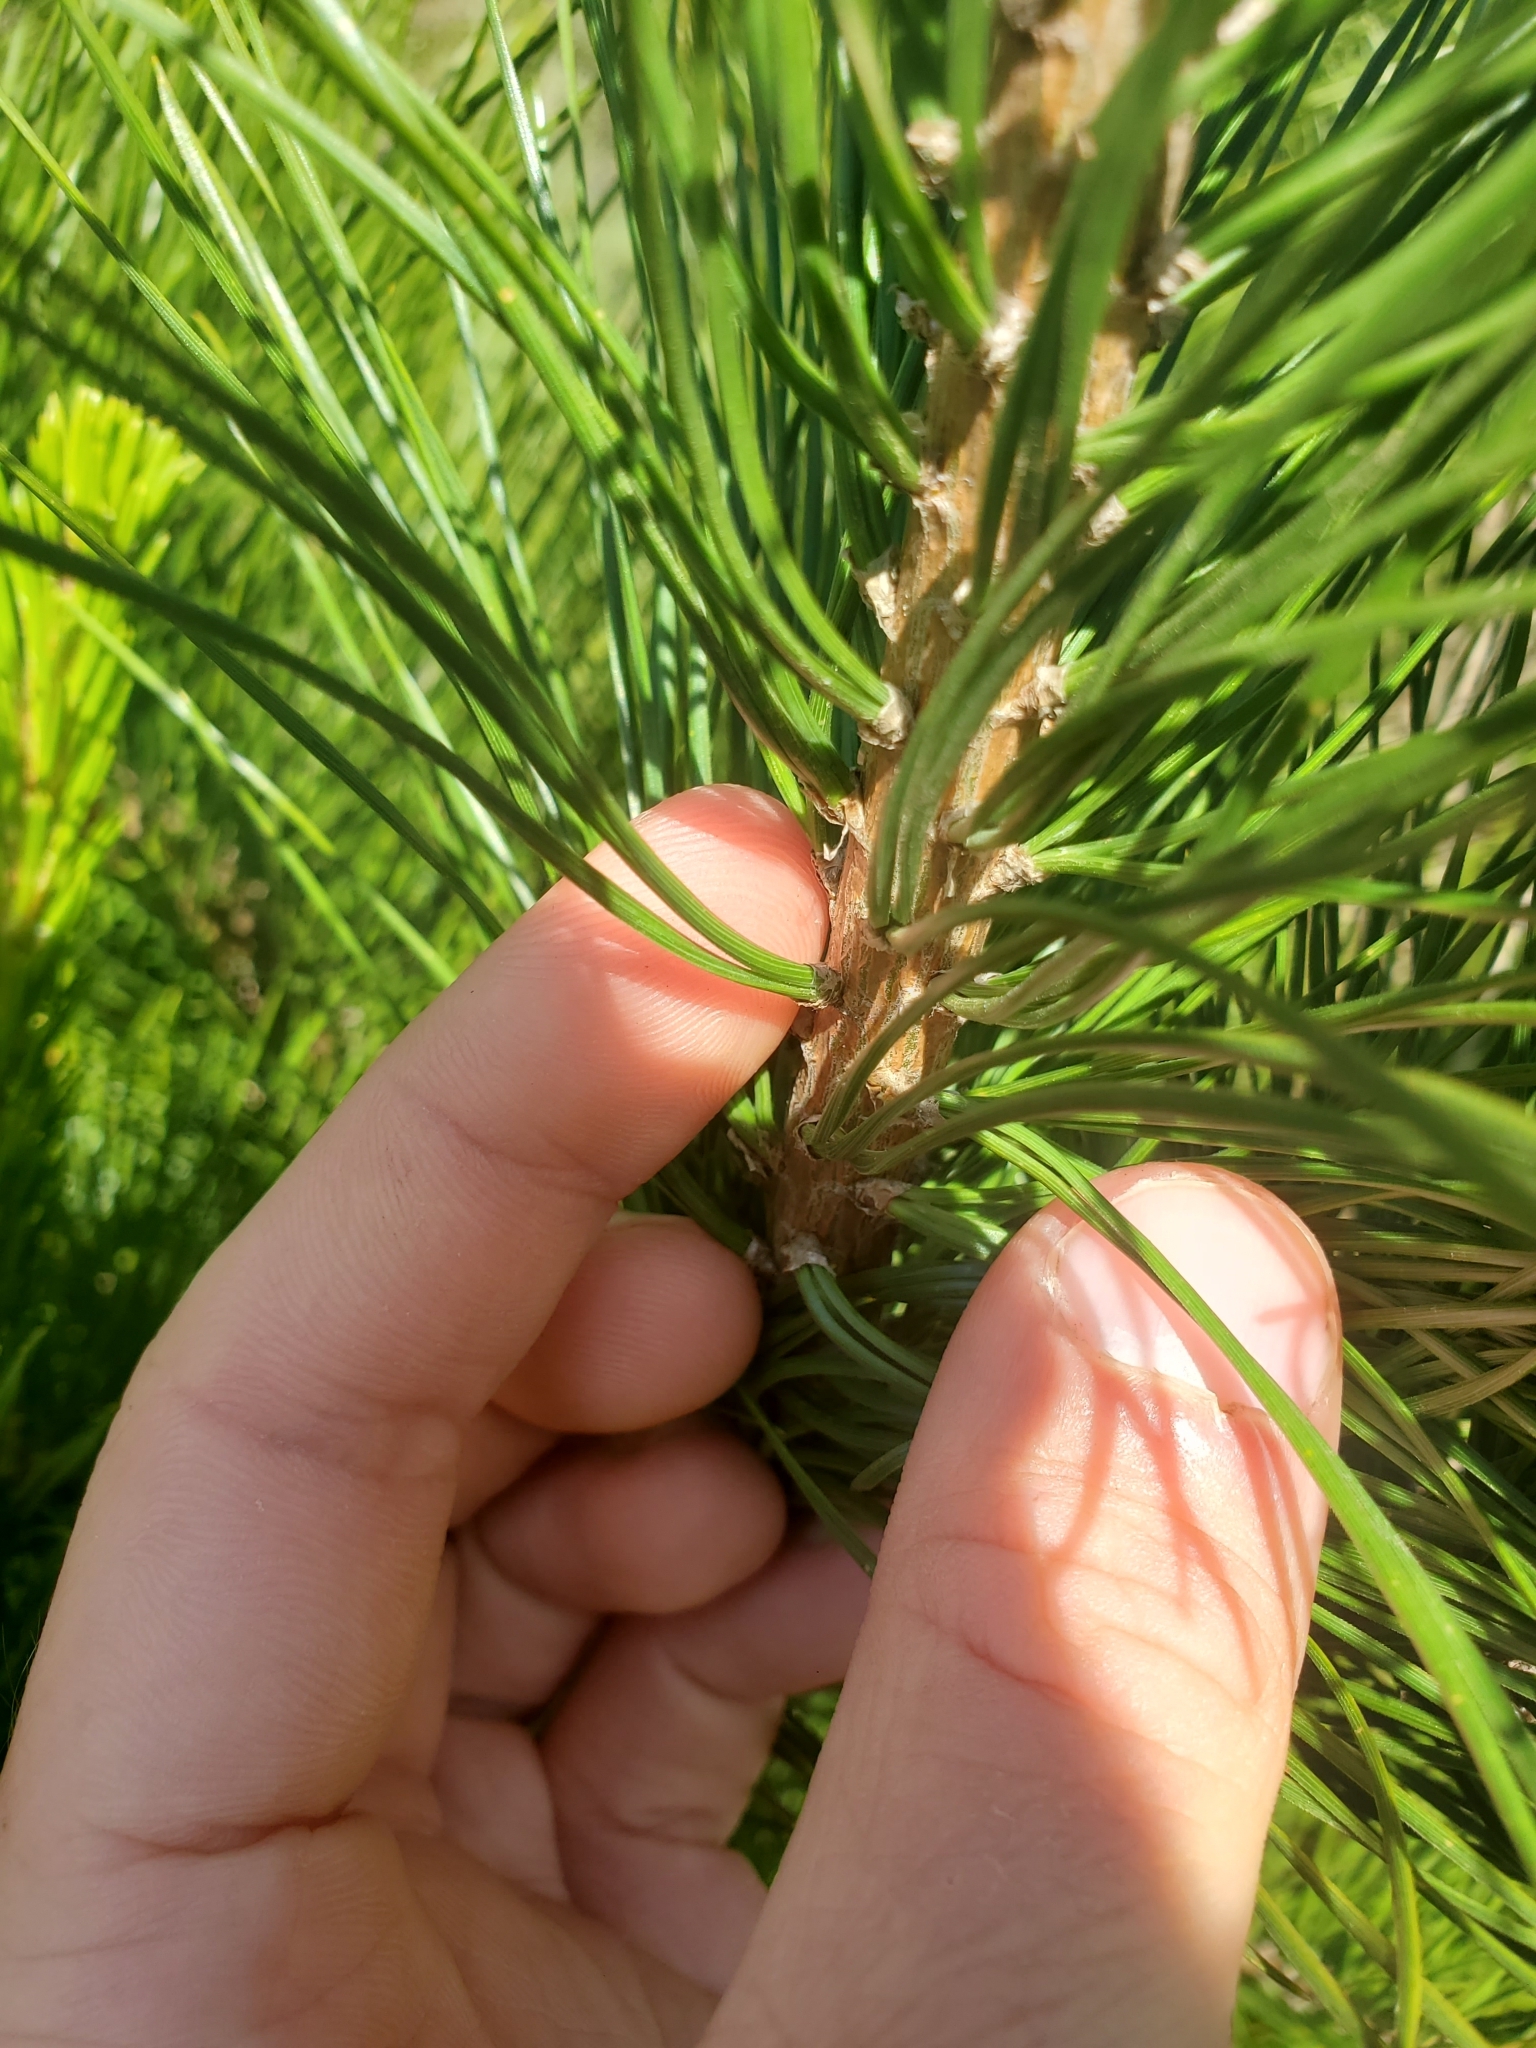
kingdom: Plantae
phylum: Tracheophyta
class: Pinopsida
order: Pinales
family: Pinaceae
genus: Pinus
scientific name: Pinus radiata
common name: Monterey pine
